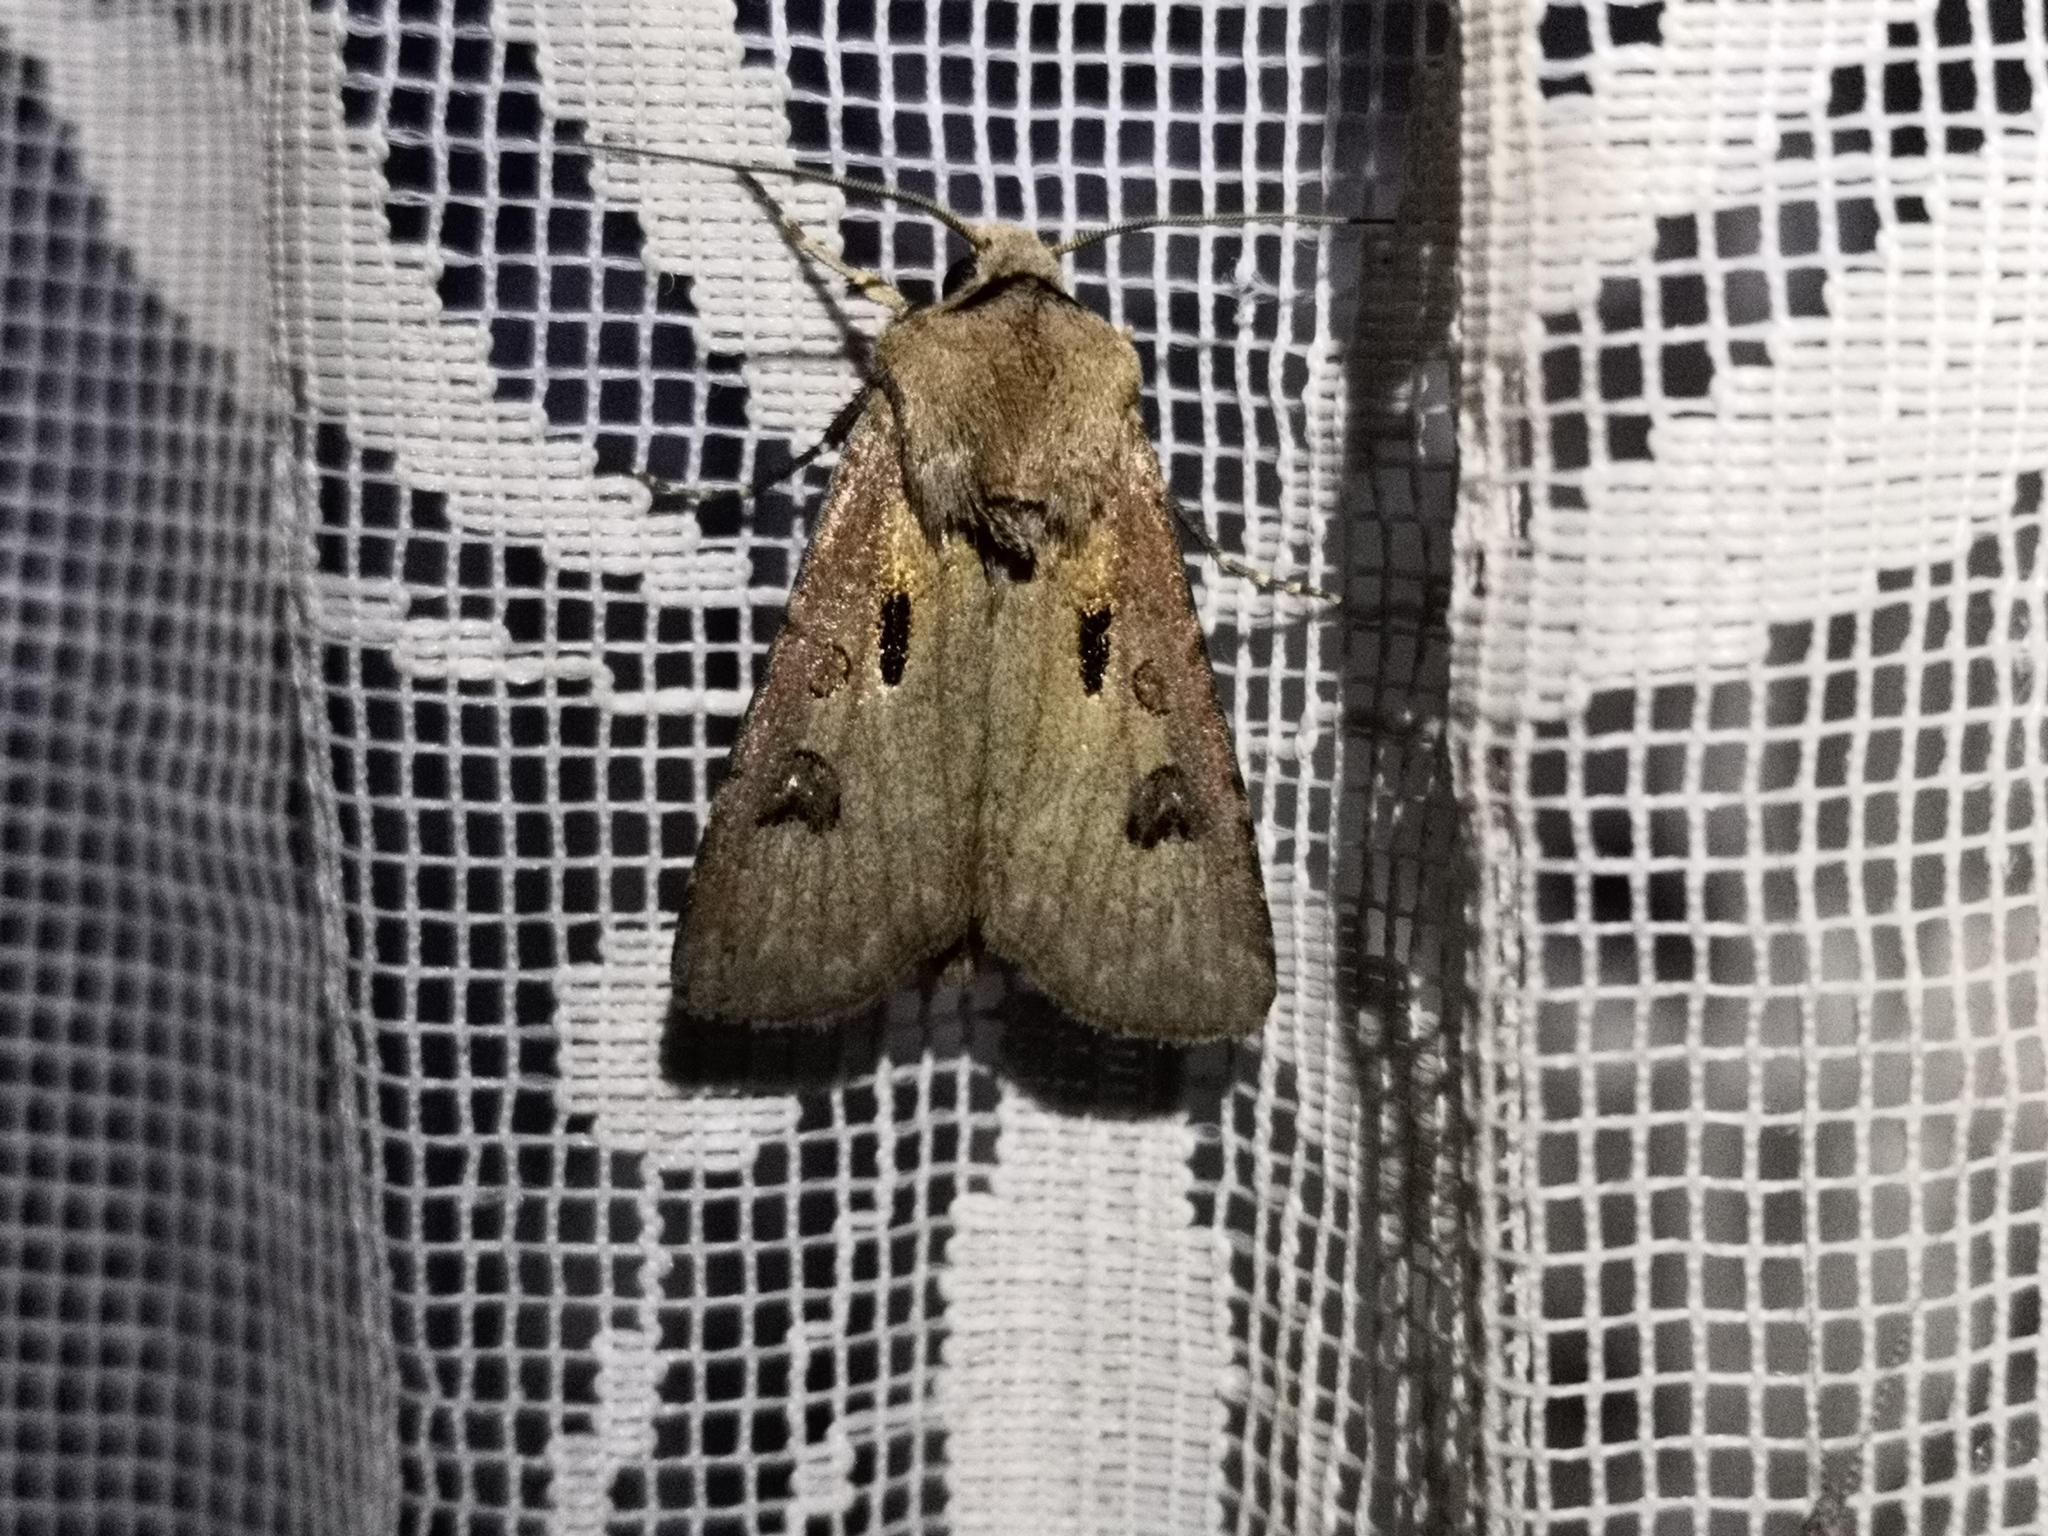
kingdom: Animalia
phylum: Arthropoda
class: Insecta
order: Lepidoptera
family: Noctuidae
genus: Agrotis
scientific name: Agrotis exclamationis
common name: Heart and dart
